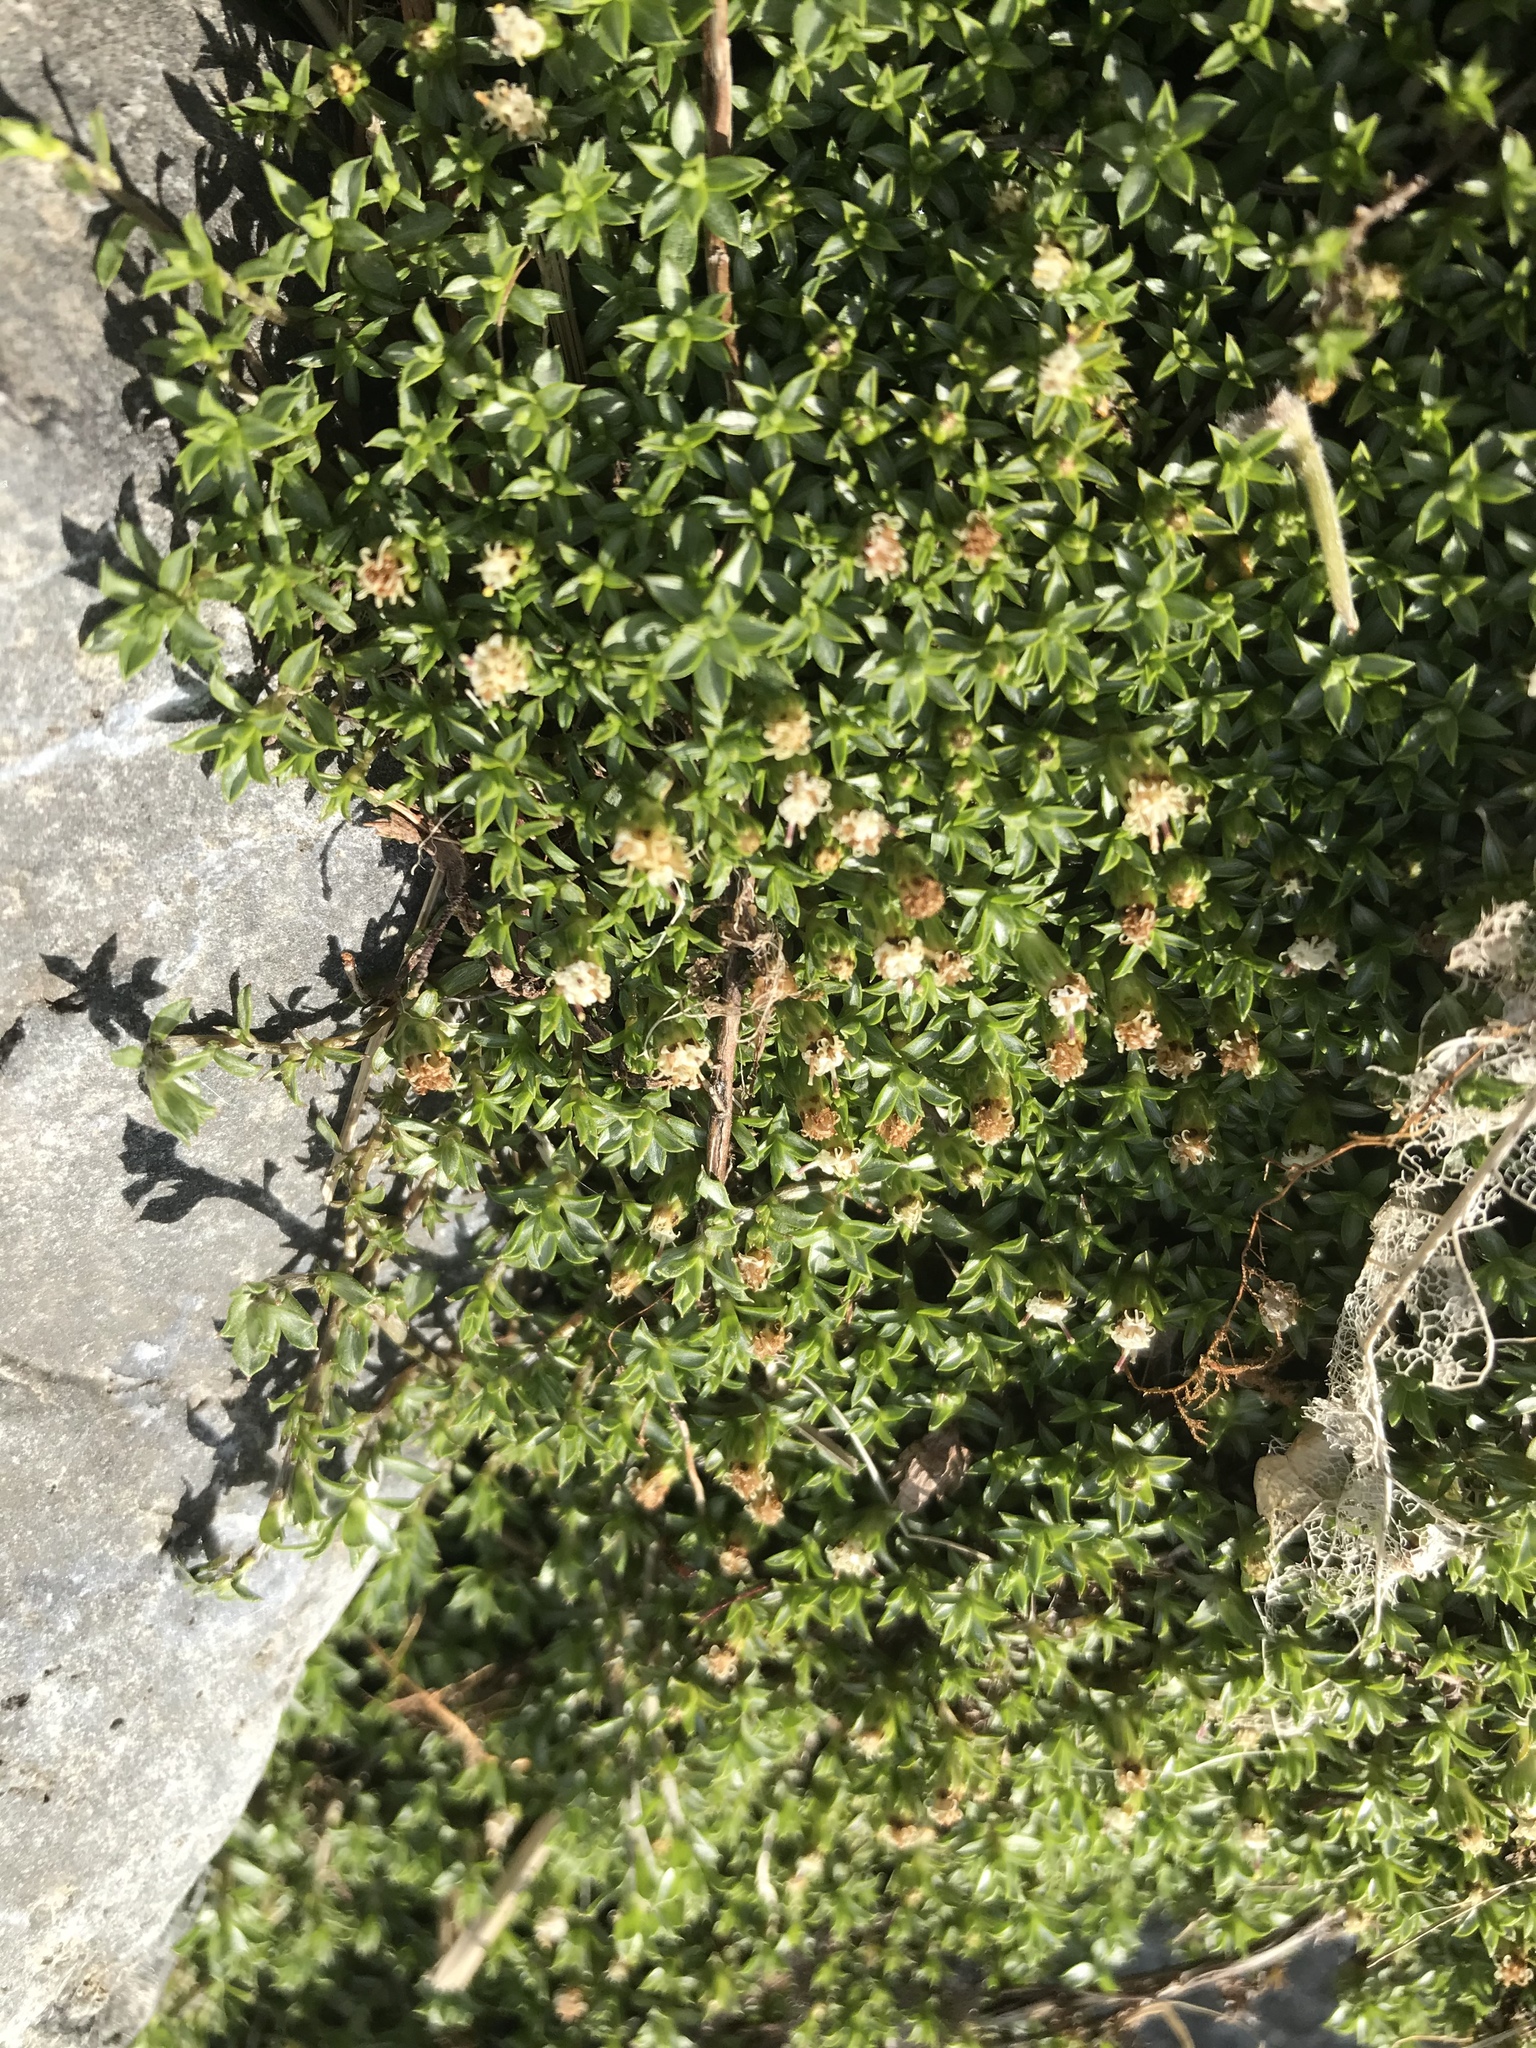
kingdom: Plantae
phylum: Tracheophyta
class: Magnoliopsida
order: Asterales
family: Asteraceae
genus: Raoulia
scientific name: Raoulia tenuicaulis
